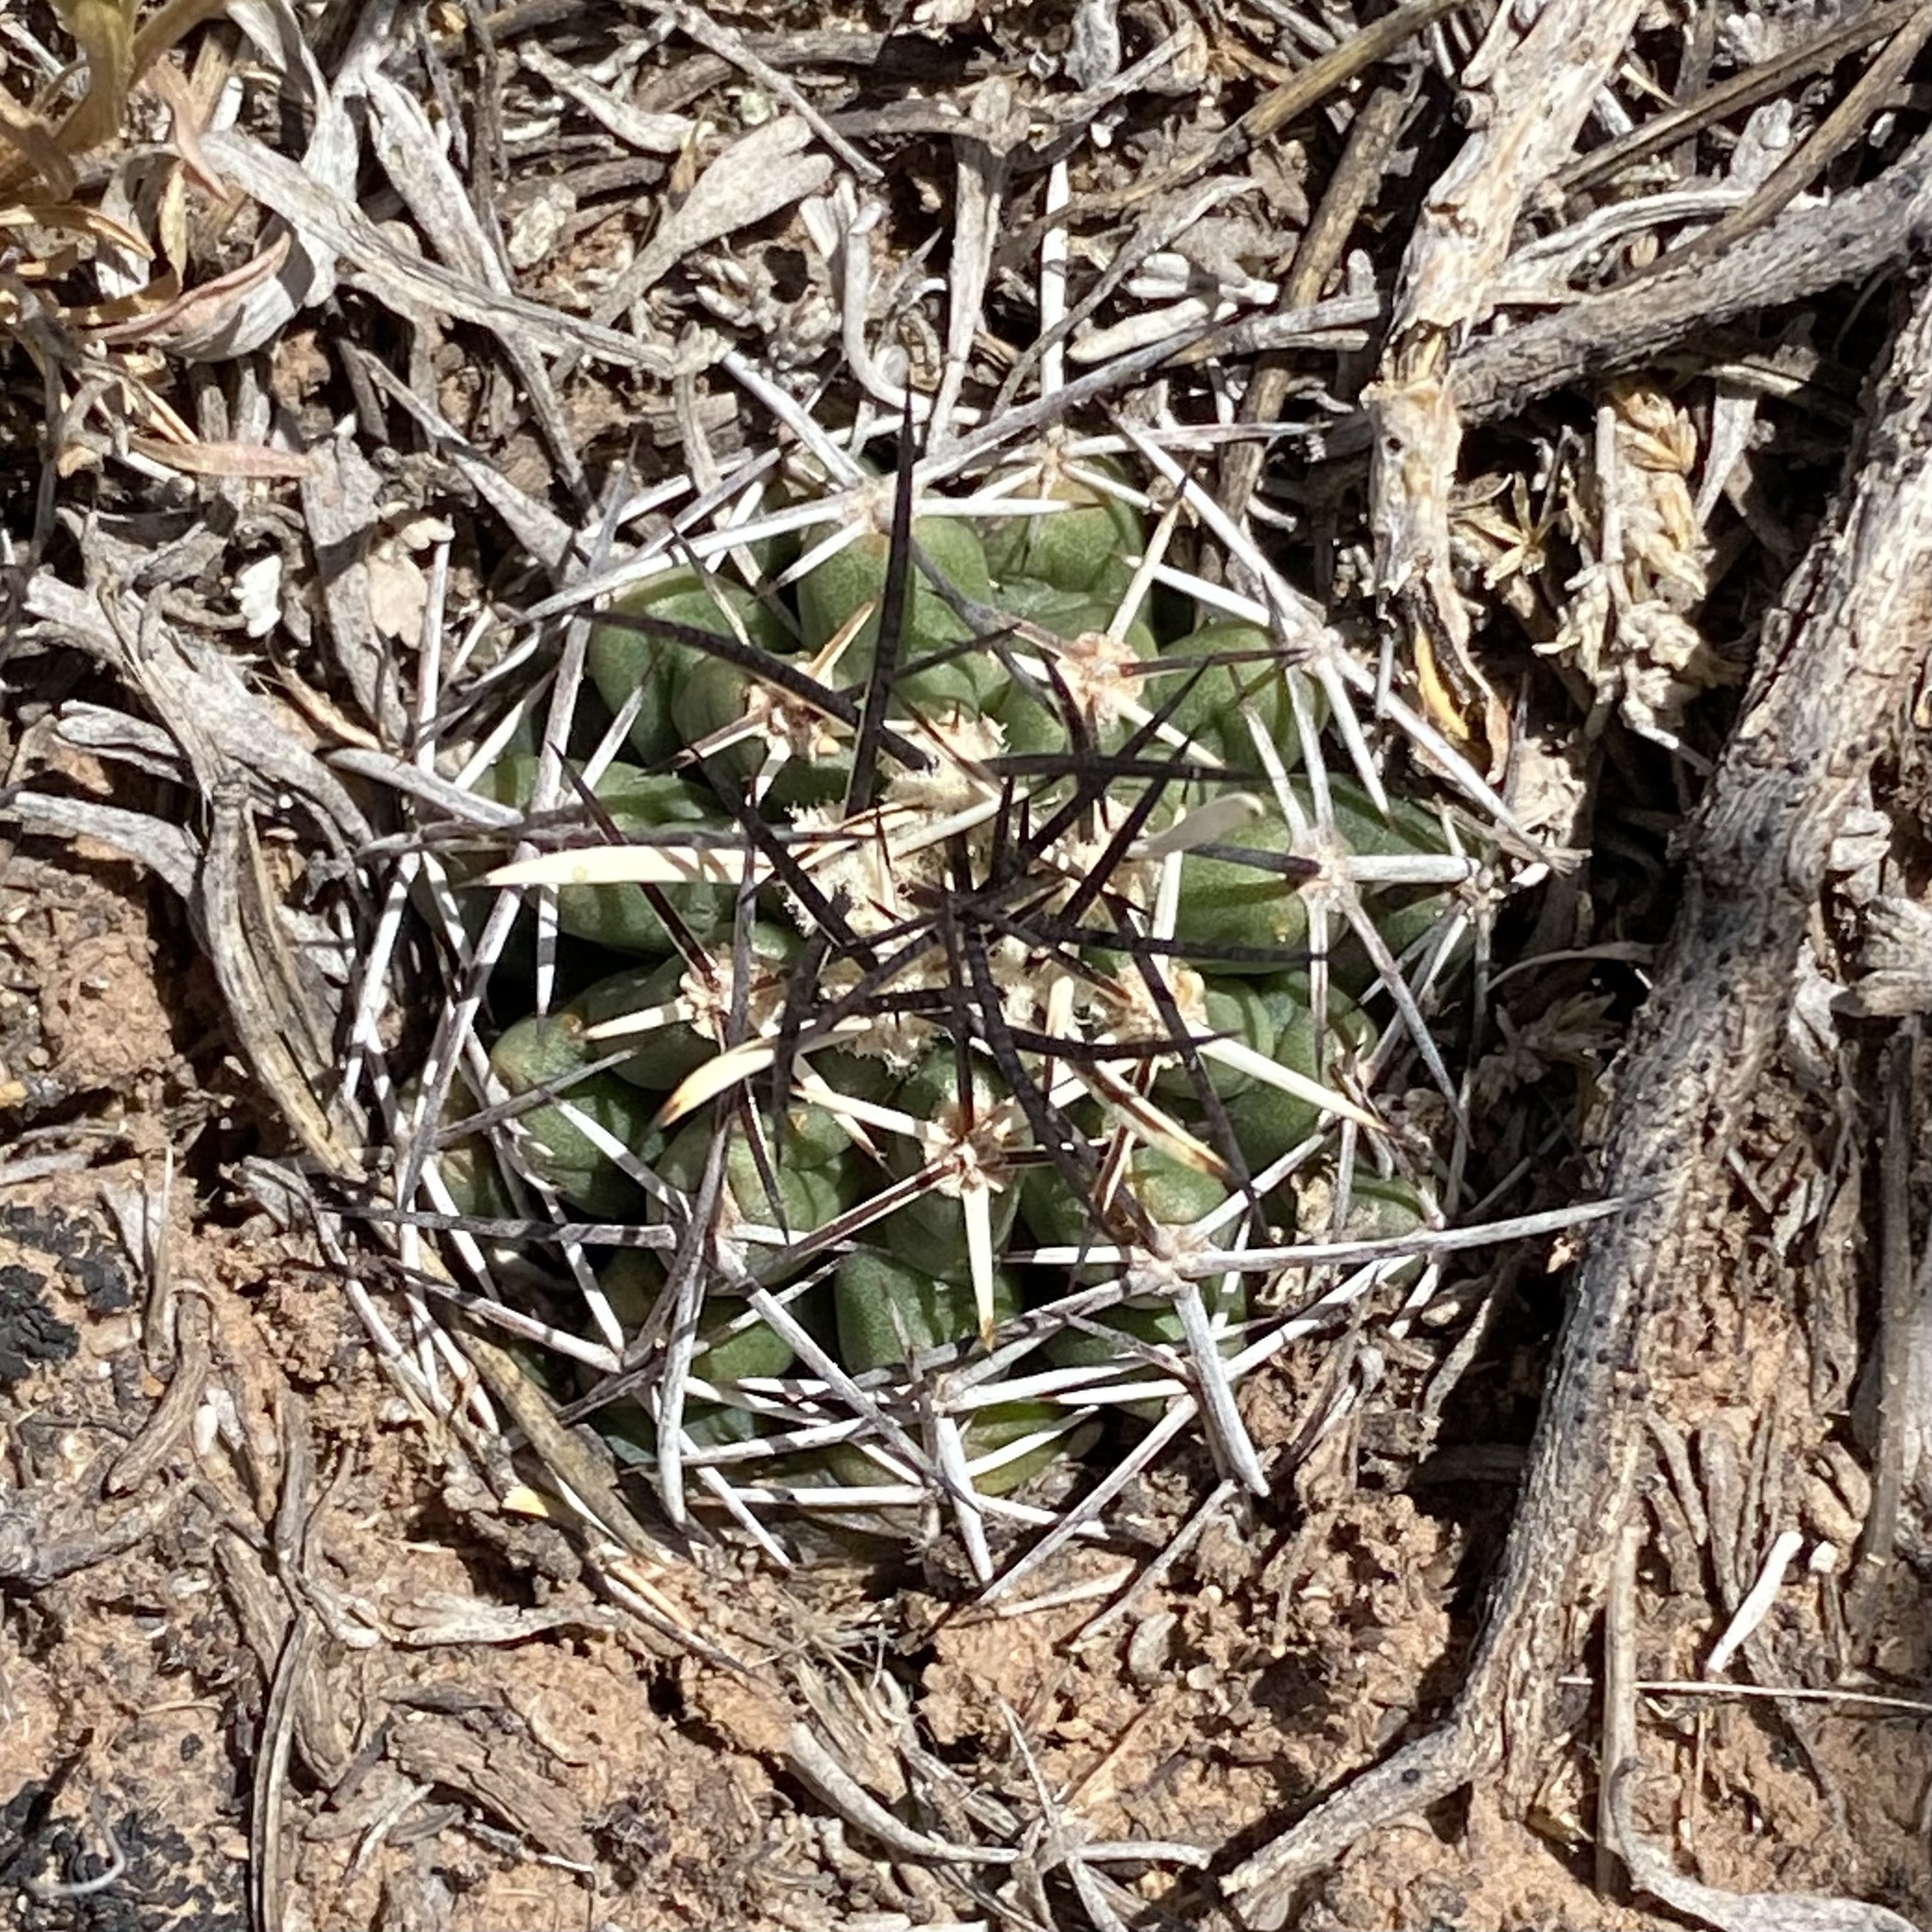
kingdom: Plantae
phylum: Tracheophyta
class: Magnoliopsida
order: Caryophyllales
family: Cactaceae
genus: Echinocereus
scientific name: Echinocereus fendleri
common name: Fendler's hedgehog cactus
